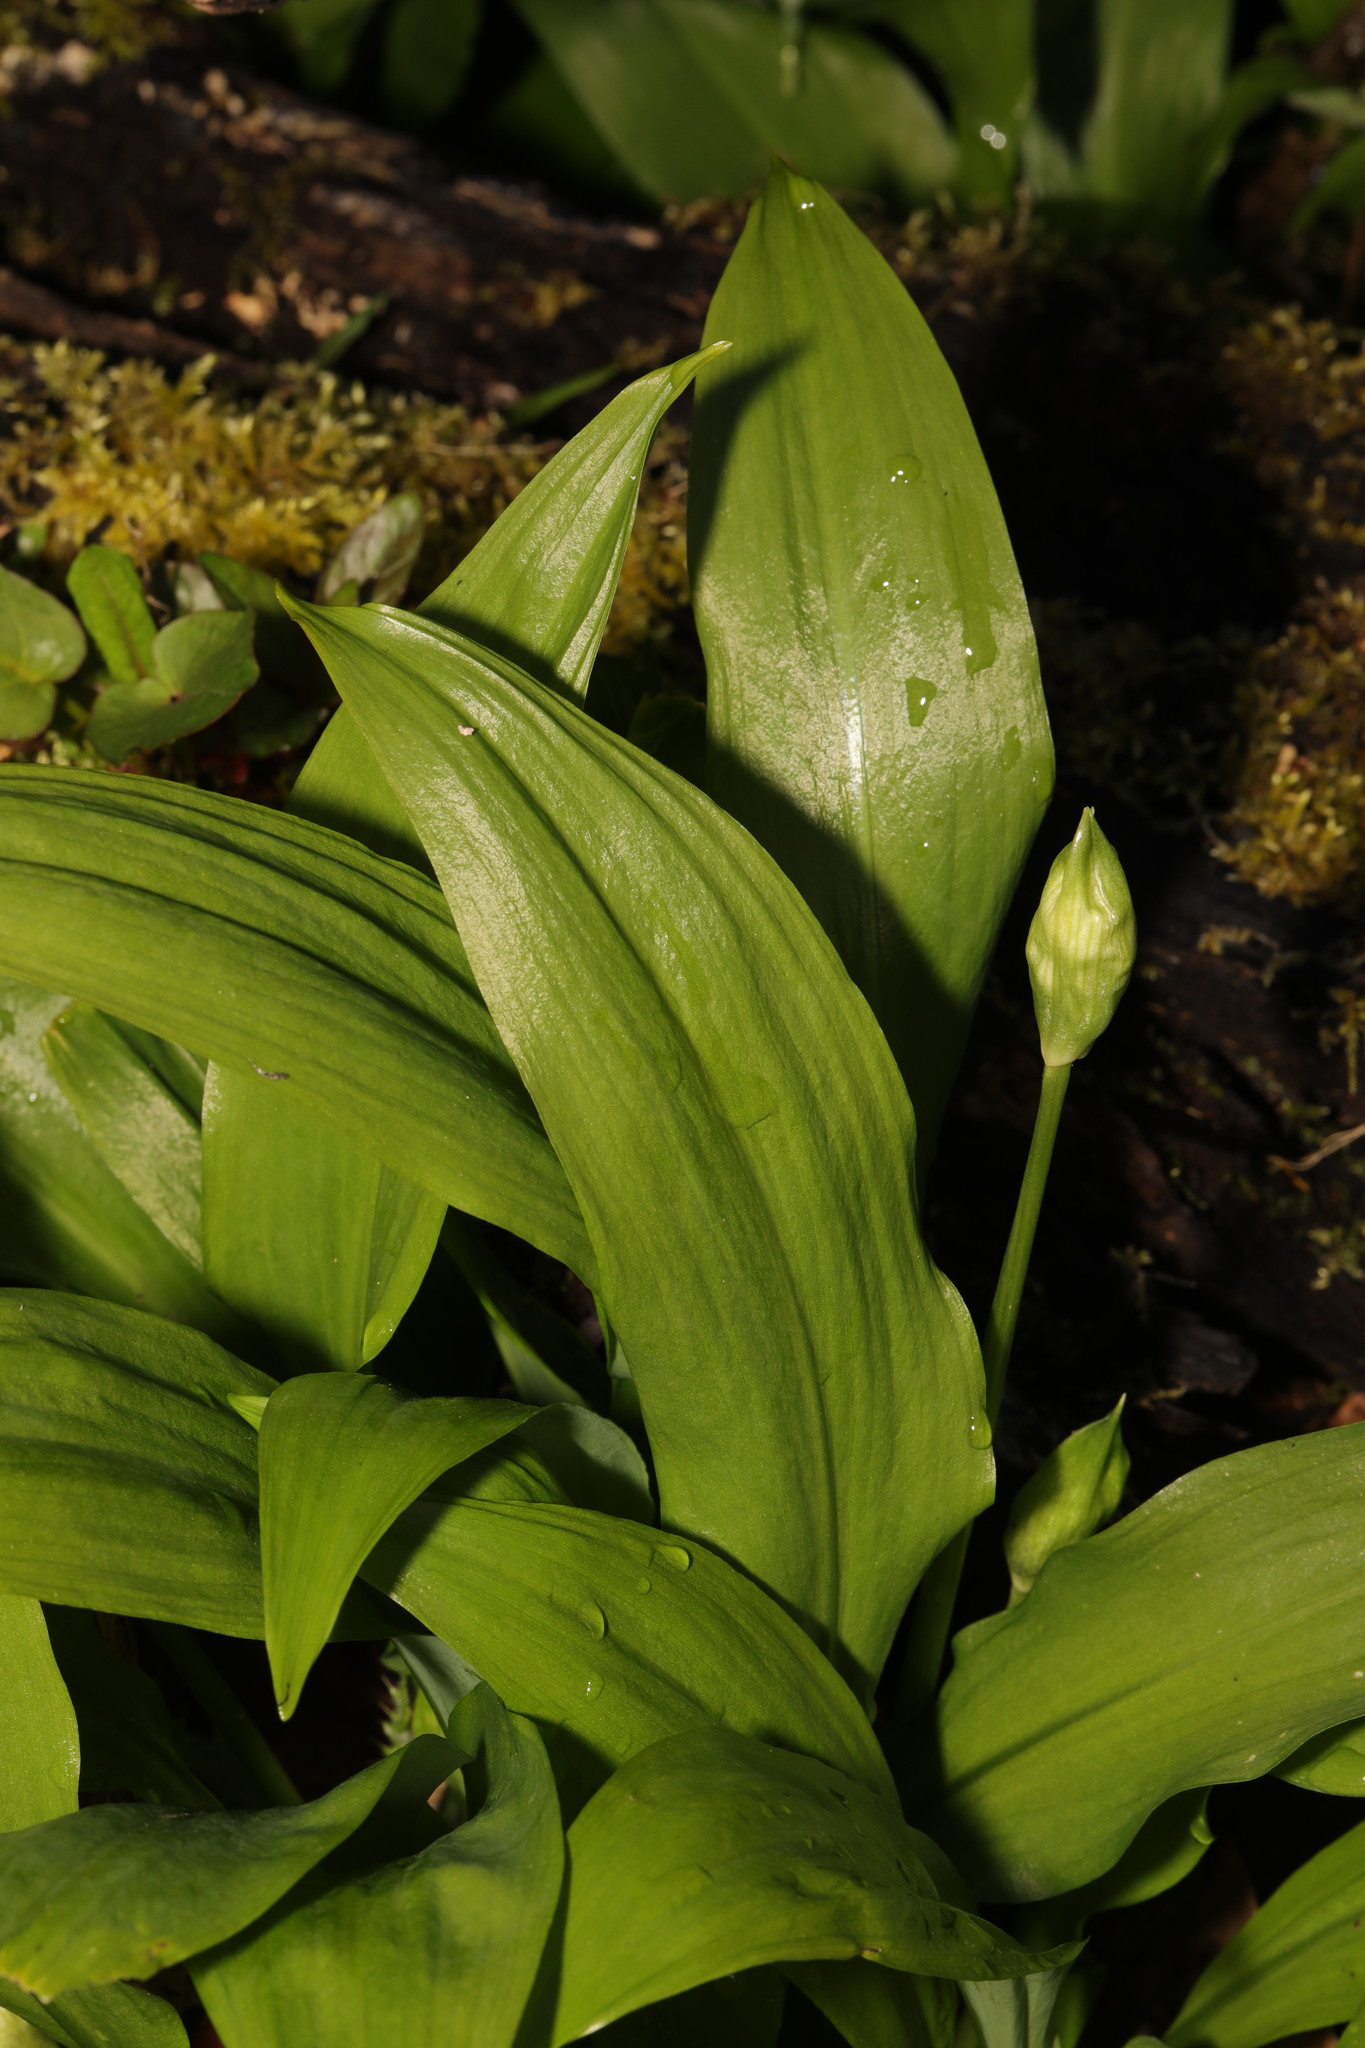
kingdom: Plantae
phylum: Tracheophyta
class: Liliopsida
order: Asparagales
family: Amaryllidaceae
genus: Allium
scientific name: Allium ursinum
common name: Ramsons
